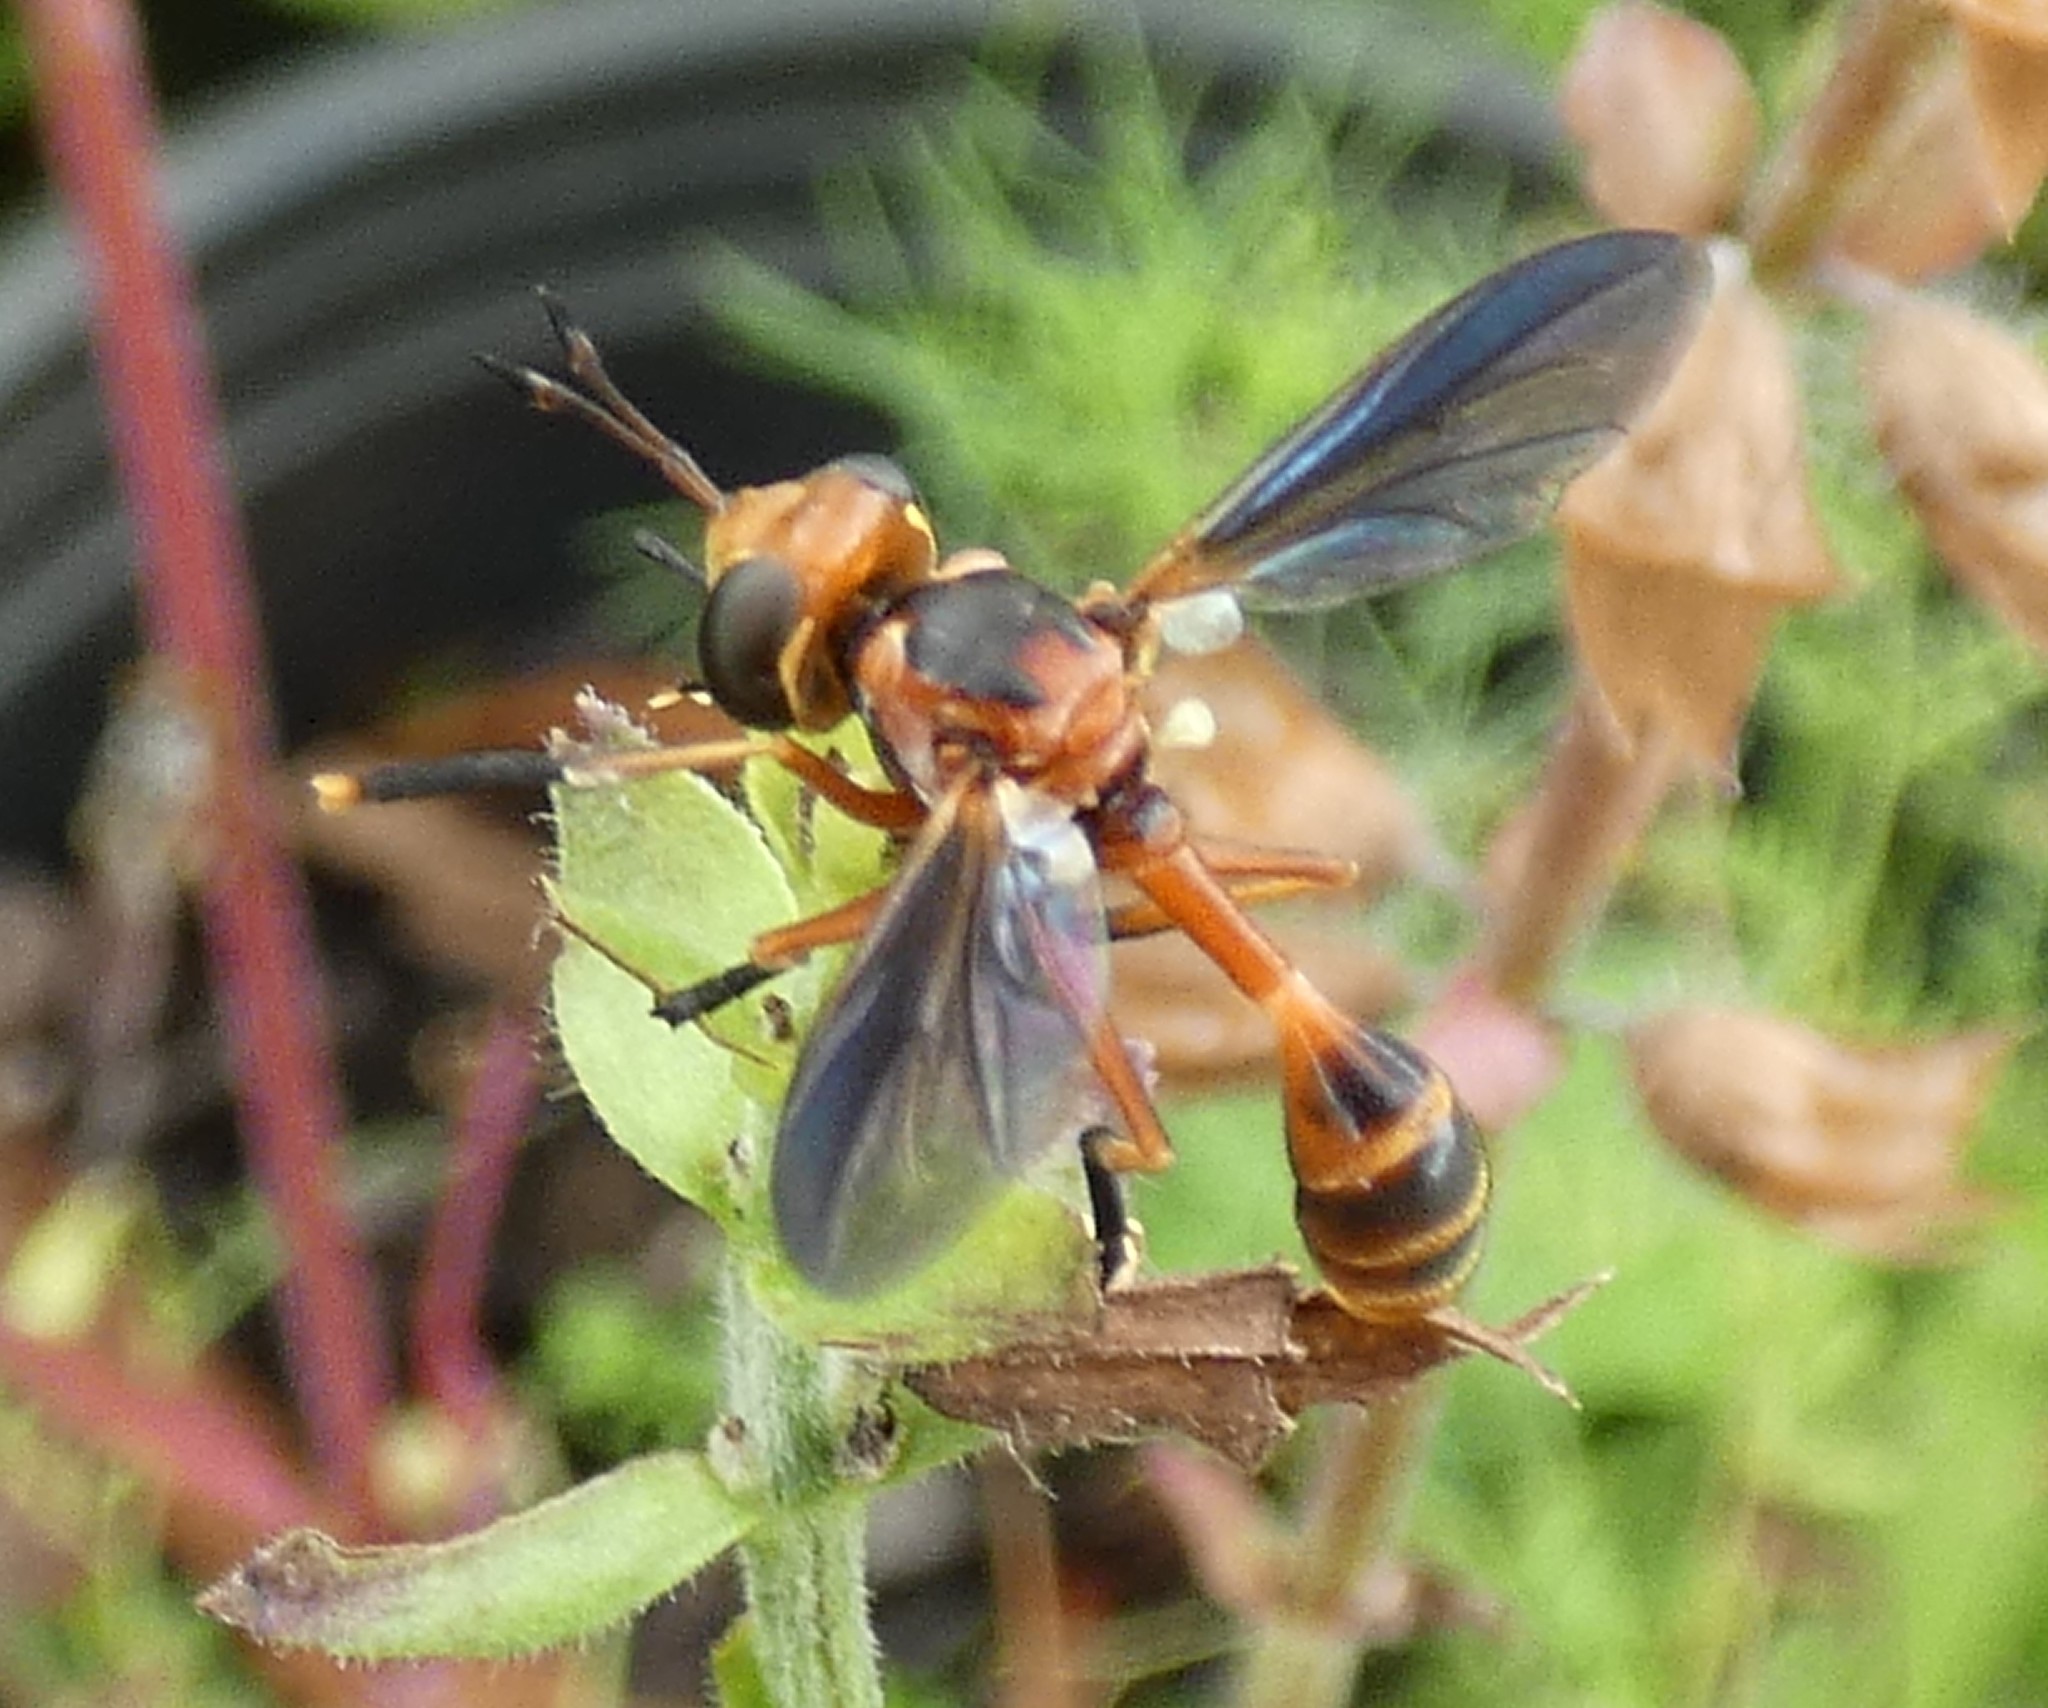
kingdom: Animalia
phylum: Arthropoda
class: Insecta
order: Diptera
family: Conopidae
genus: Physoconops
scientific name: Physoconops fronto
